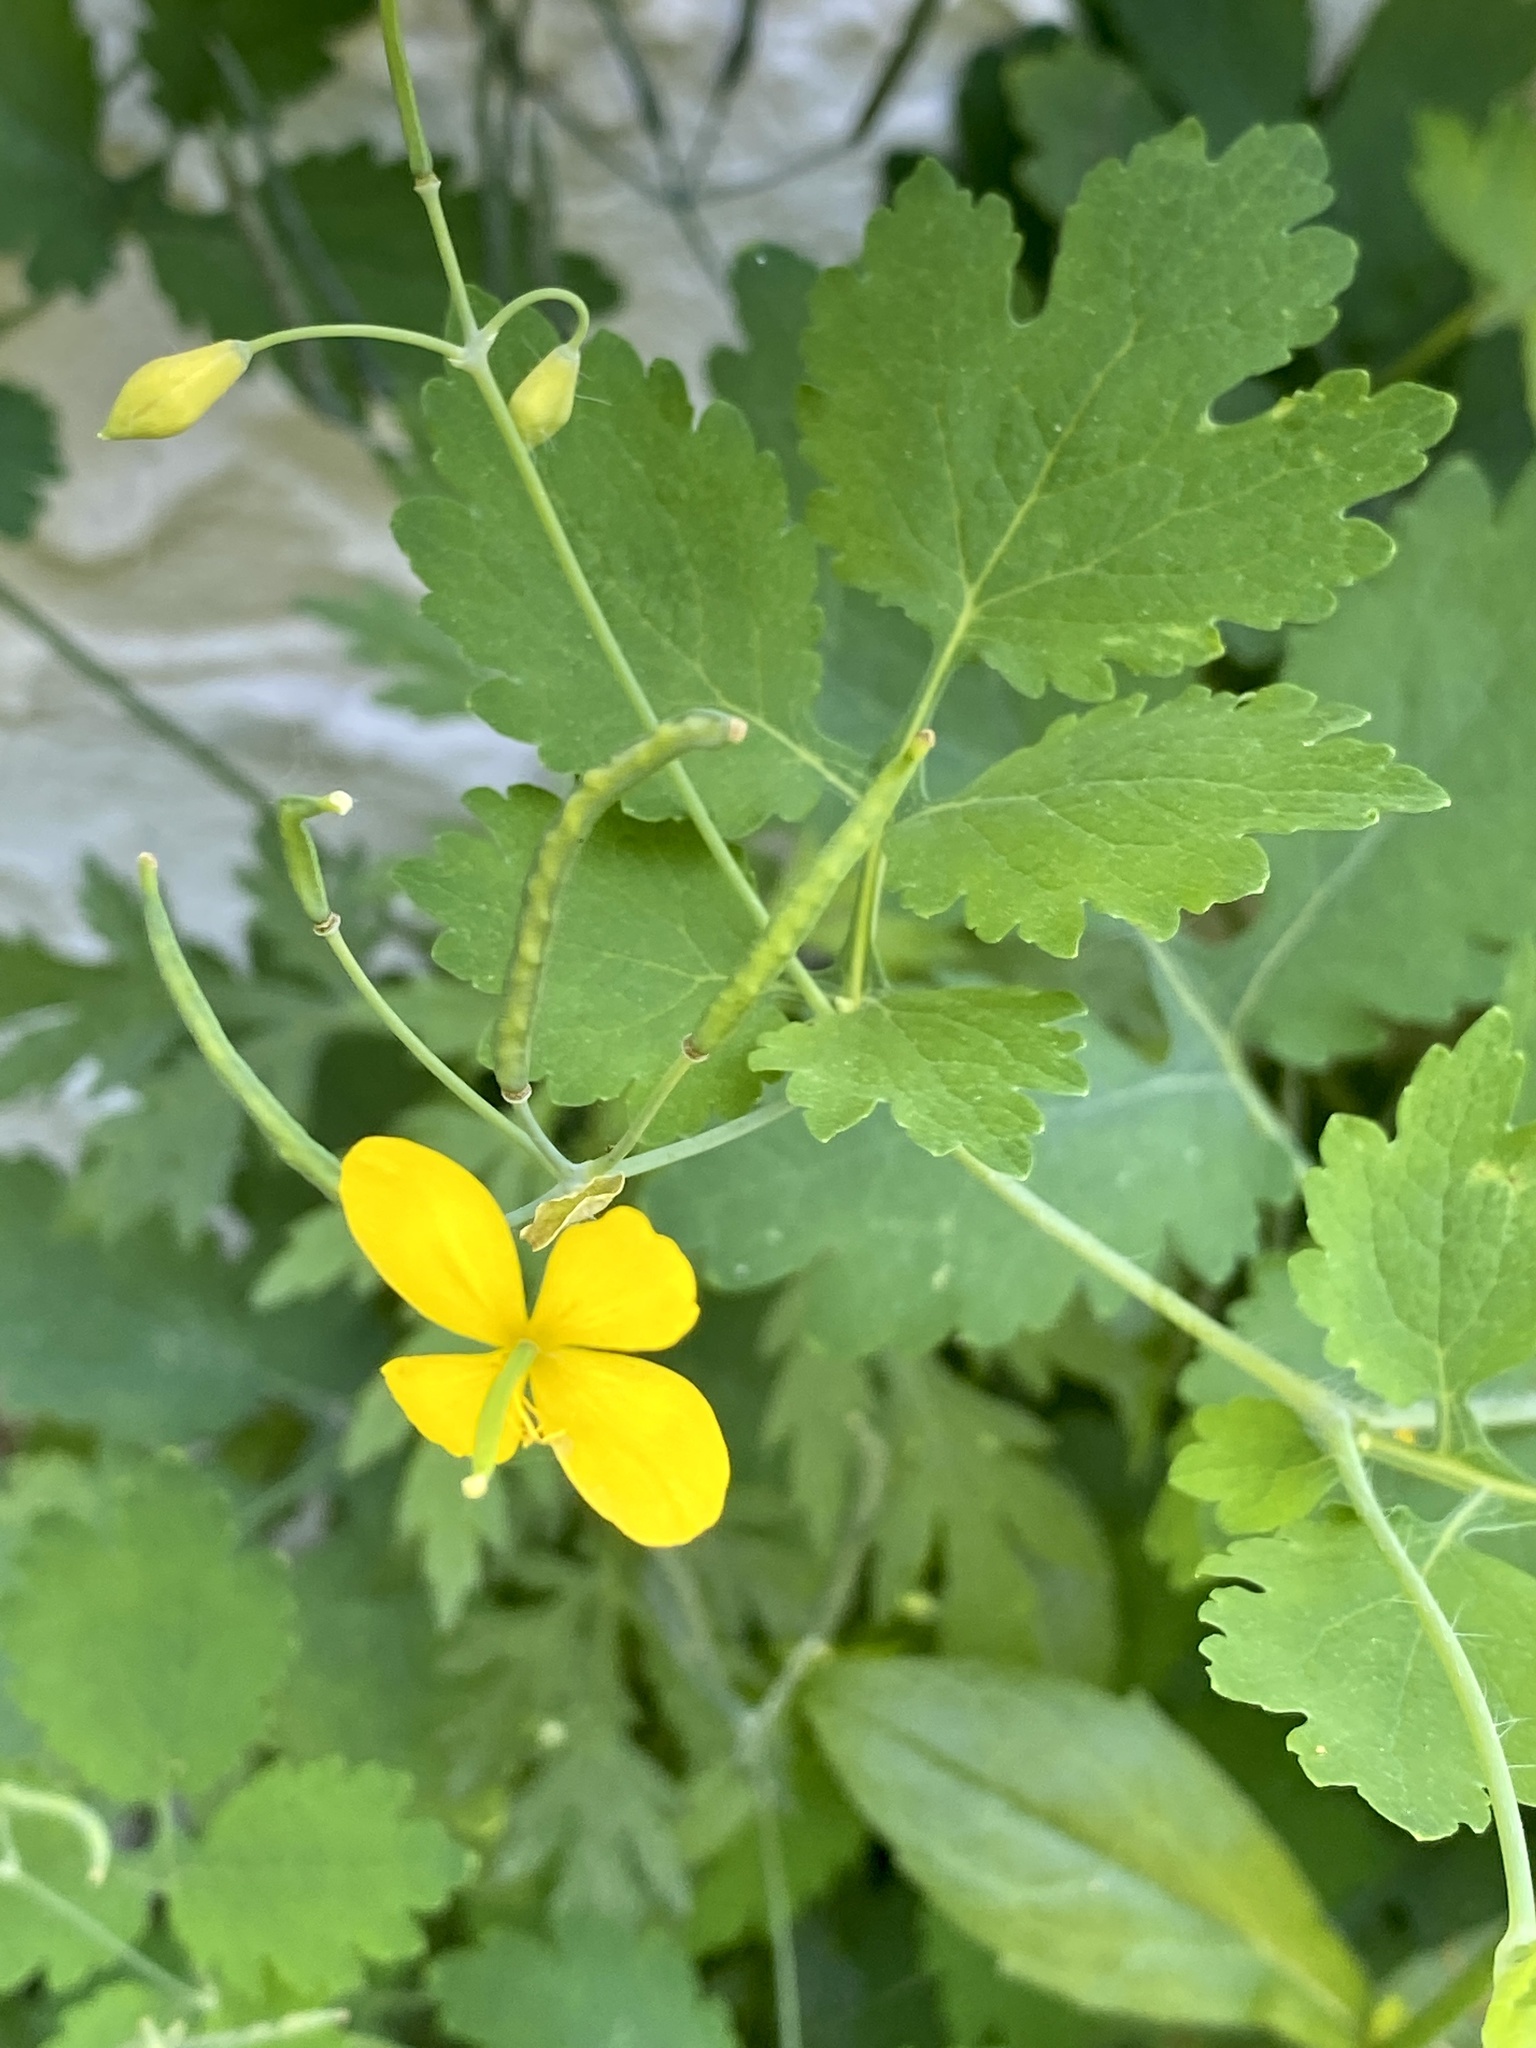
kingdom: Plantae
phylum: Tracheophyta
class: Magnoliopsida
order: Ranunculales
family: Papaveraceae
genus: Chelidonium
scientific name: Chelidonium majus
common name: Greater celandine
